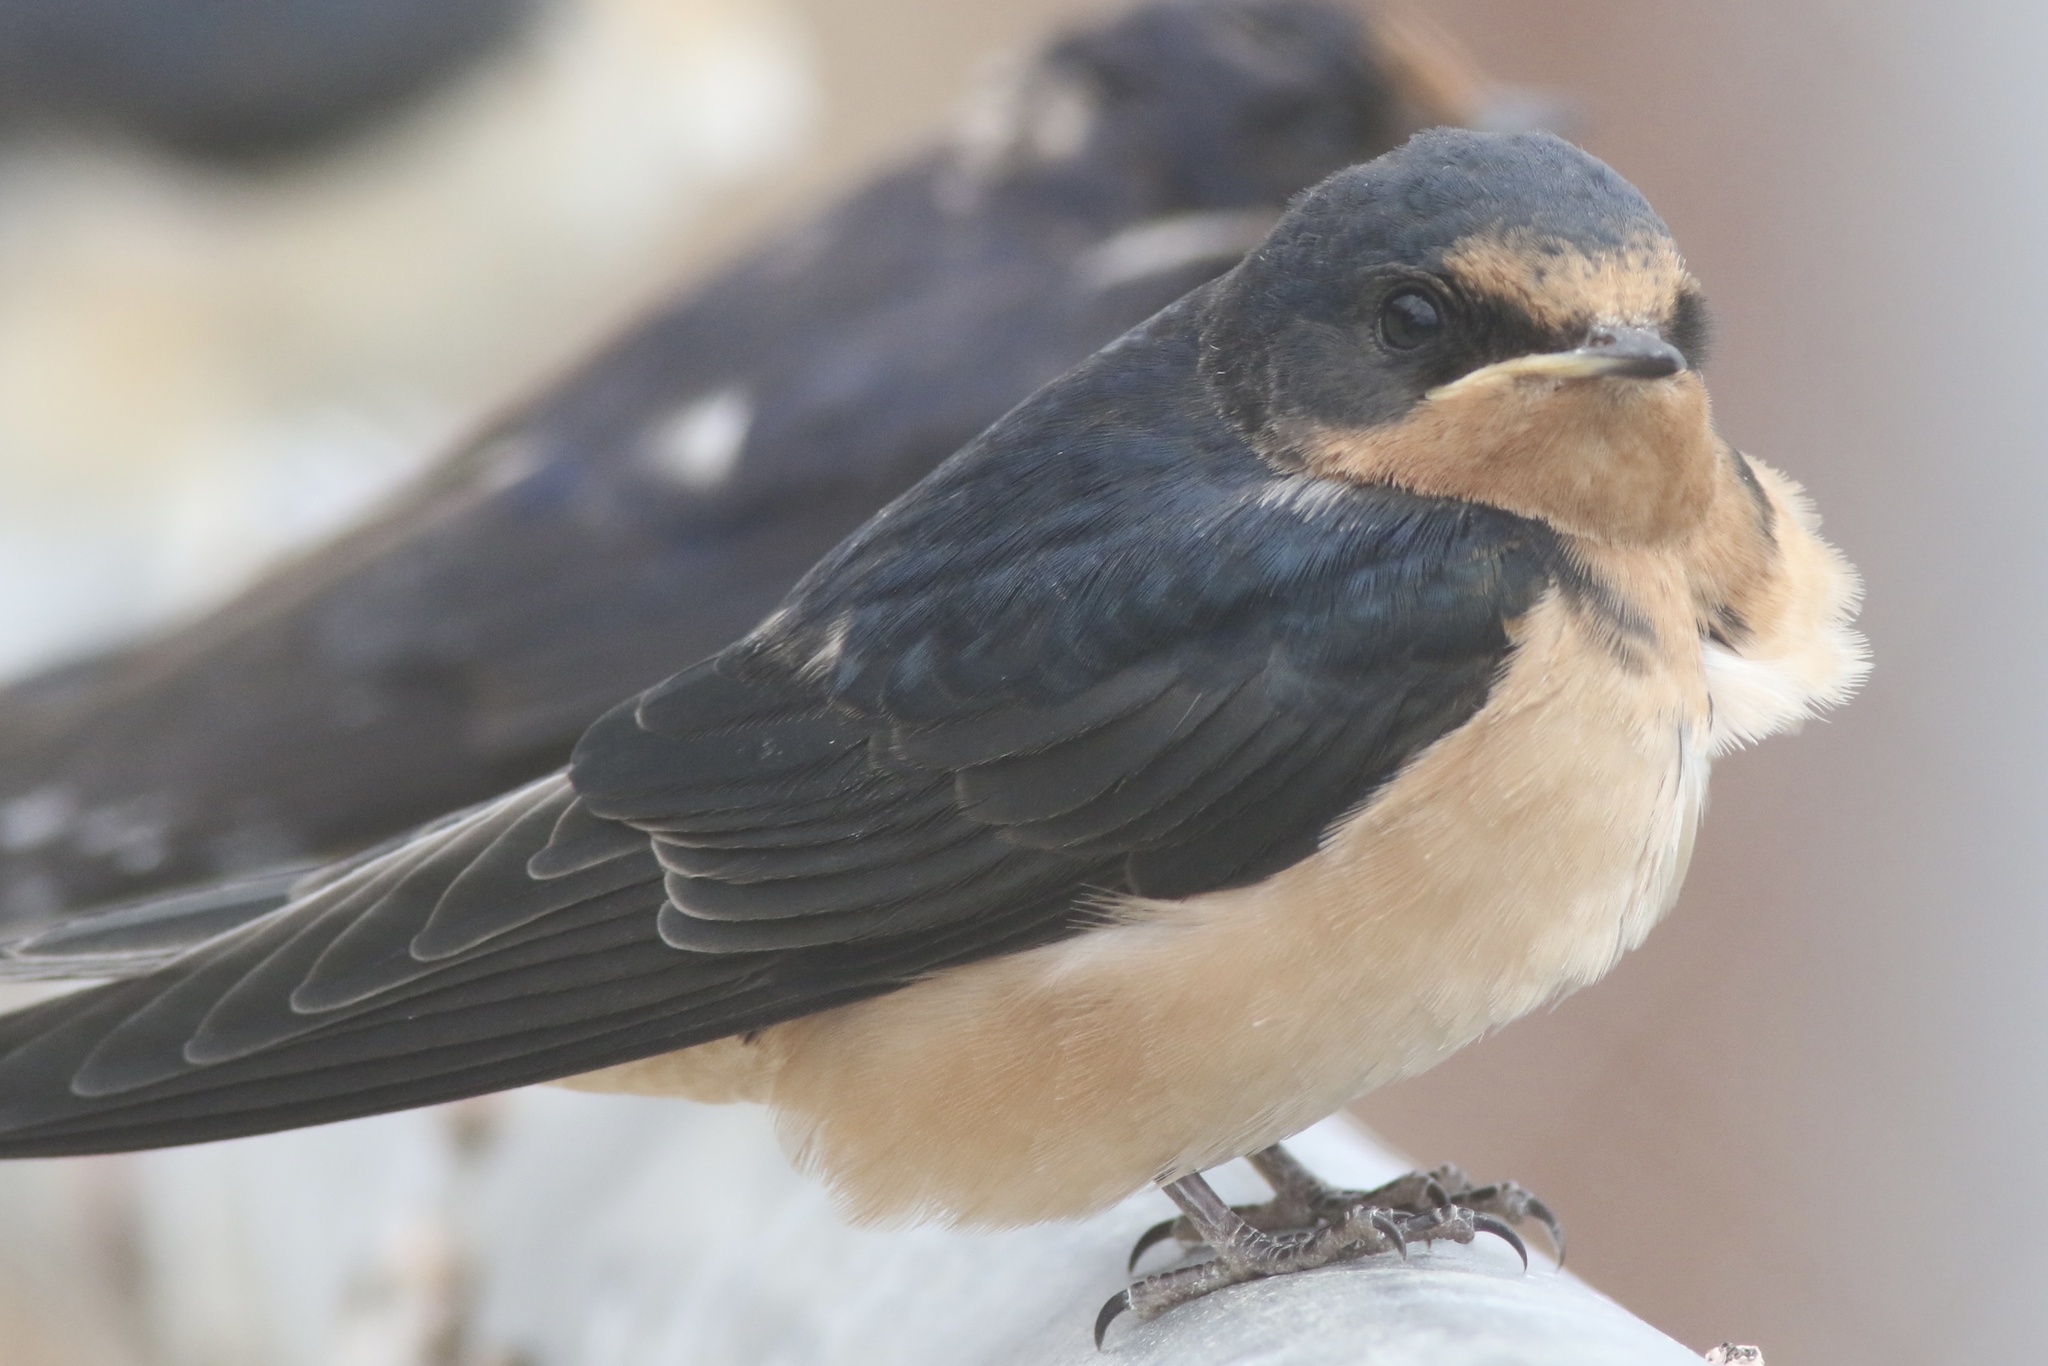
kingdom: Animalia
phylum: Chordata
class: Aves
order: Passeriformes
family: Hirundinidae
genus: Hirundo
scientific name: Hirundo rustica
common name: Barn swallow
